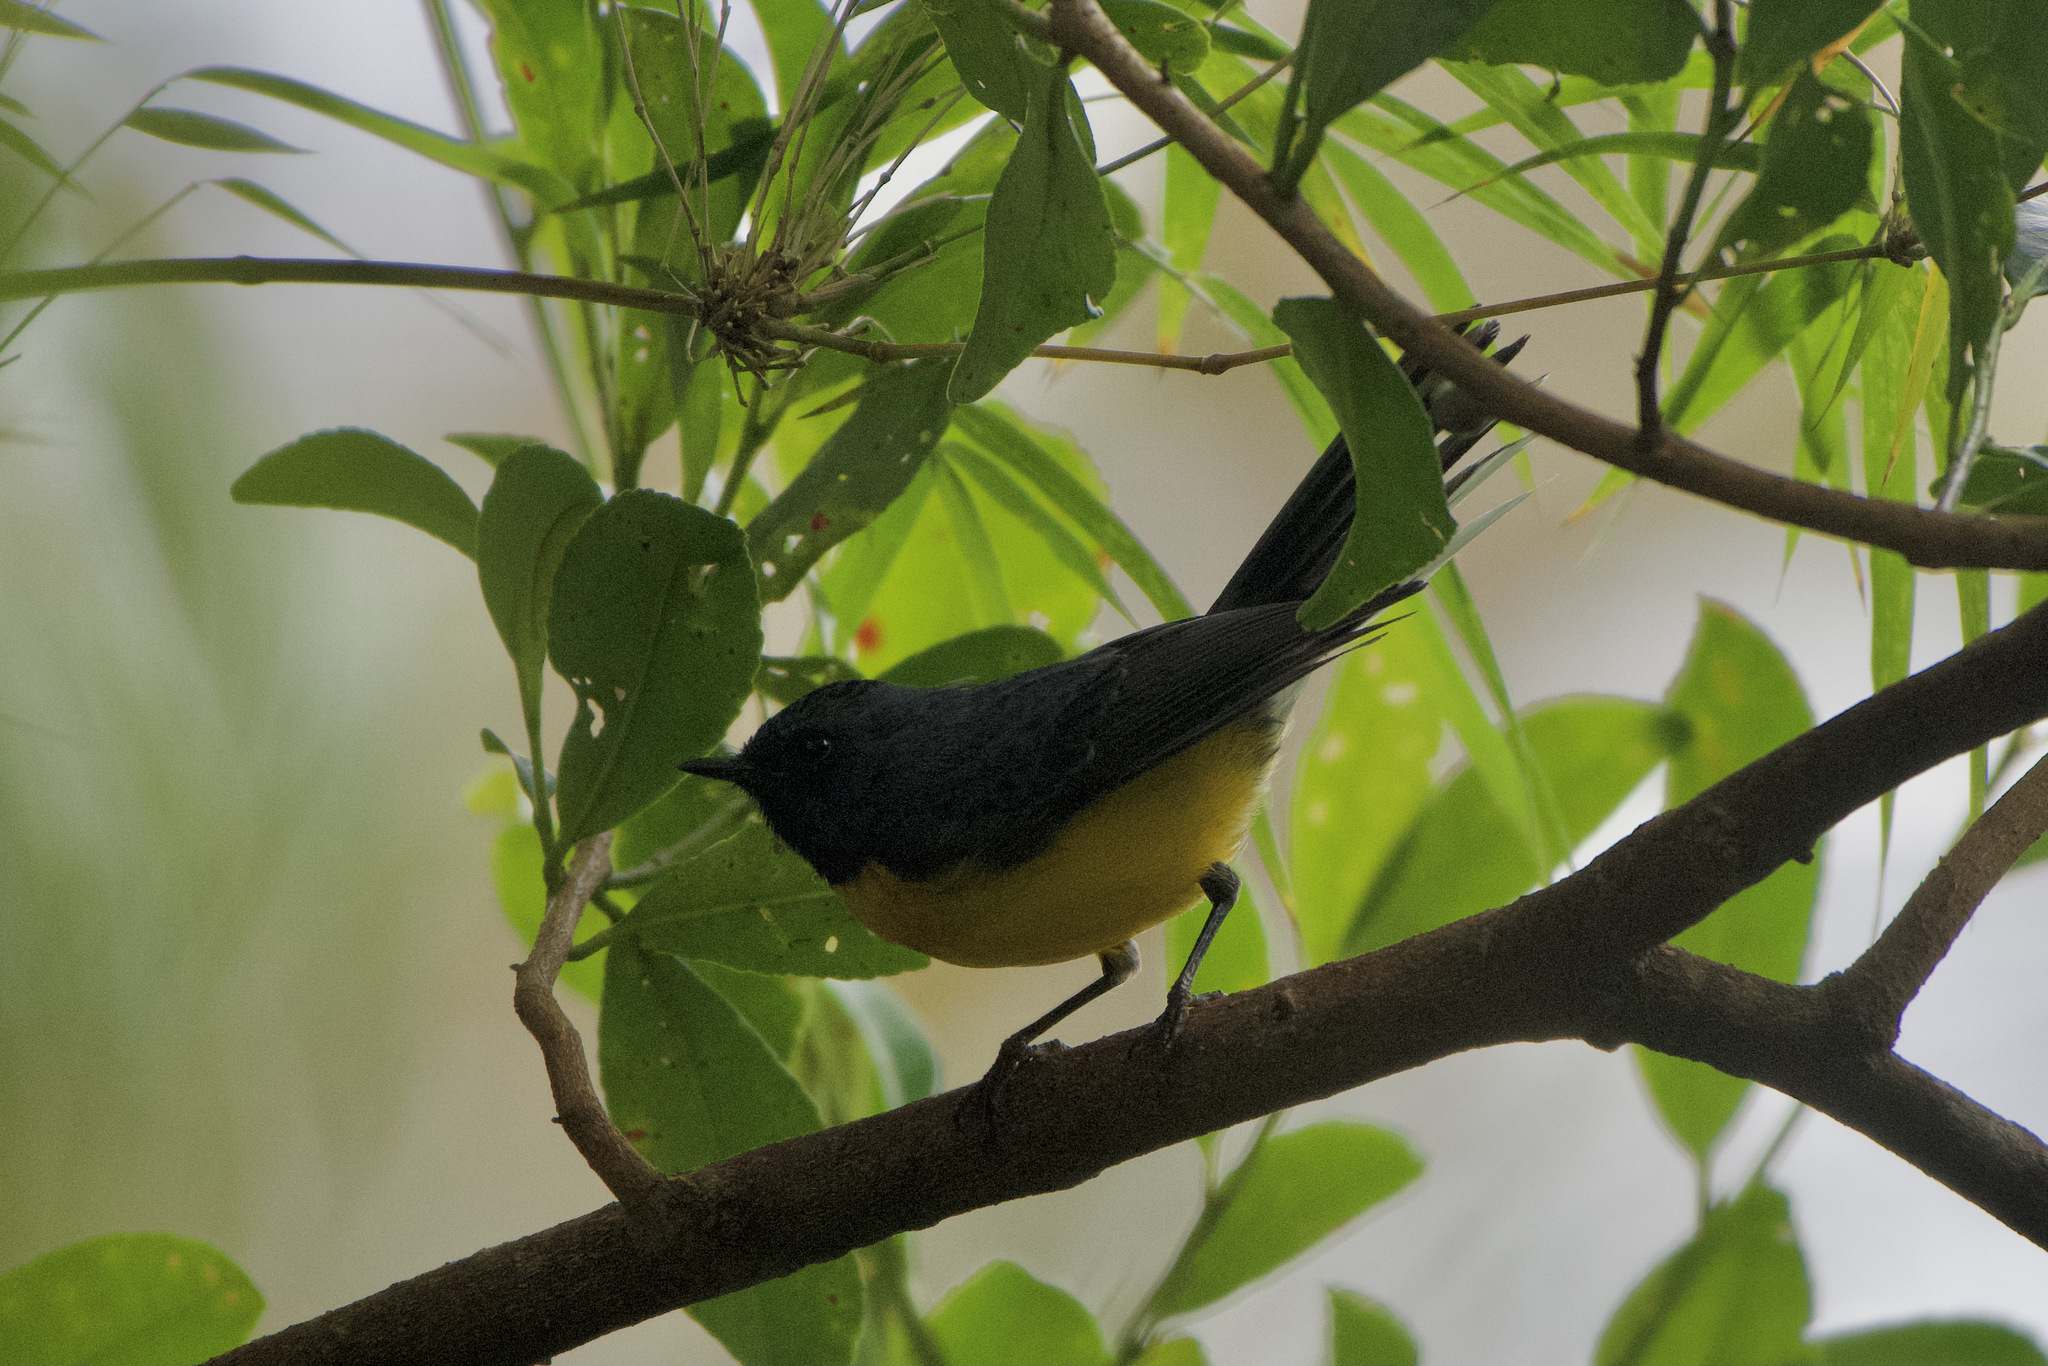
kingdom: Animalia
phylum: Chordata
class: Aves
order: Passeriformes
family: Parulidae
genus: Myioborus
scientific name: Myioborus miniatus
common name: Slate-throated redstart
